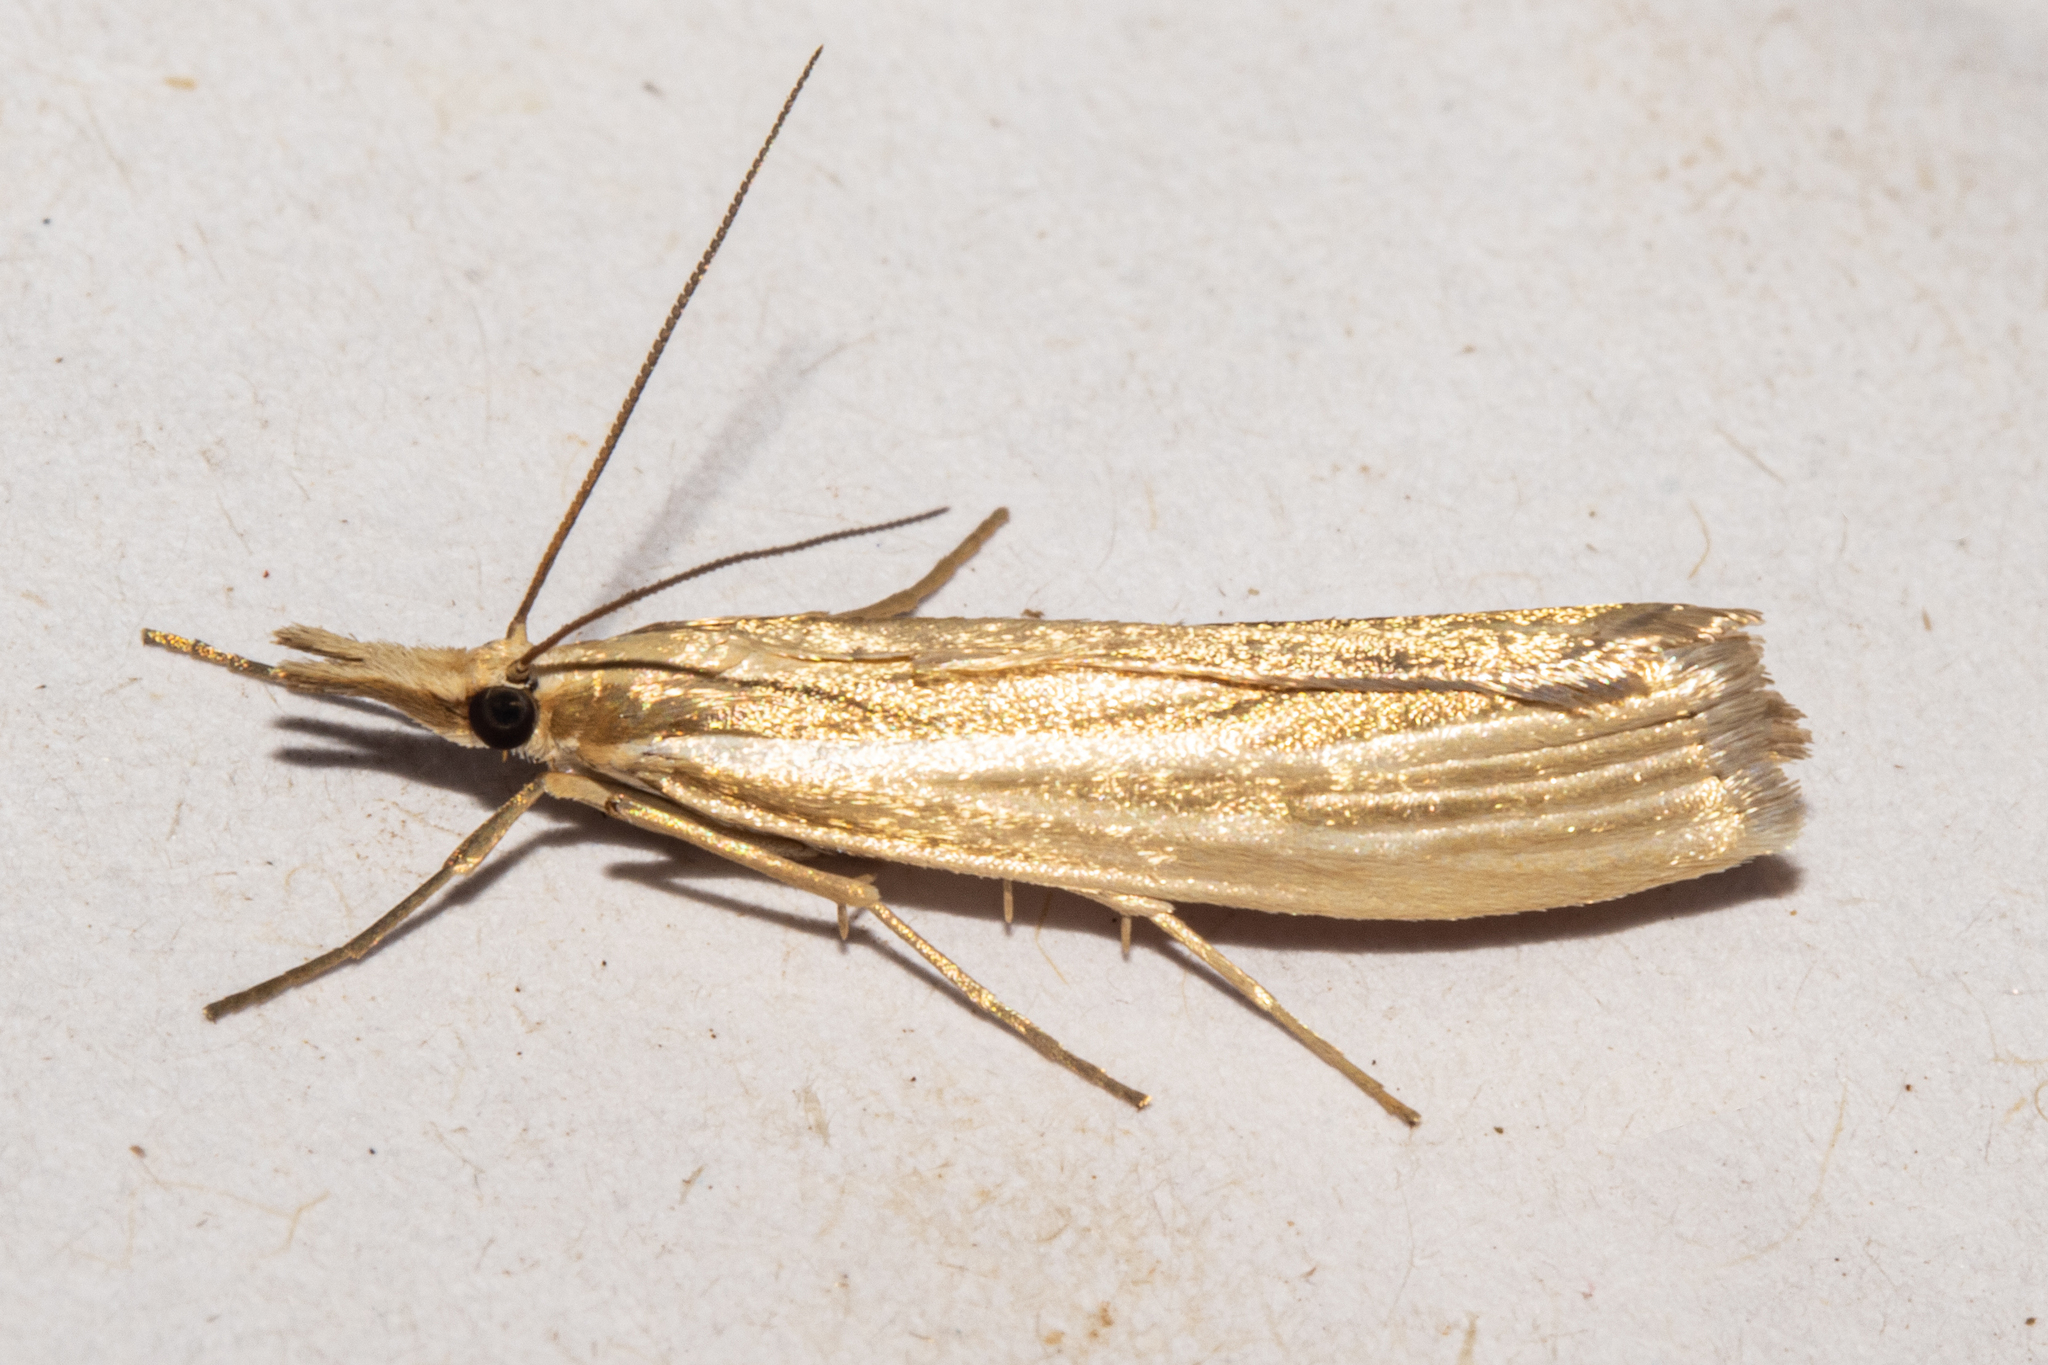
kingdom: Animalia
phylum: Arthropoda
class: Insecta
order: Lepidoptera
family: Crambidae
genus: Orocrambus
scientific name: Orocrambus angustipennis
